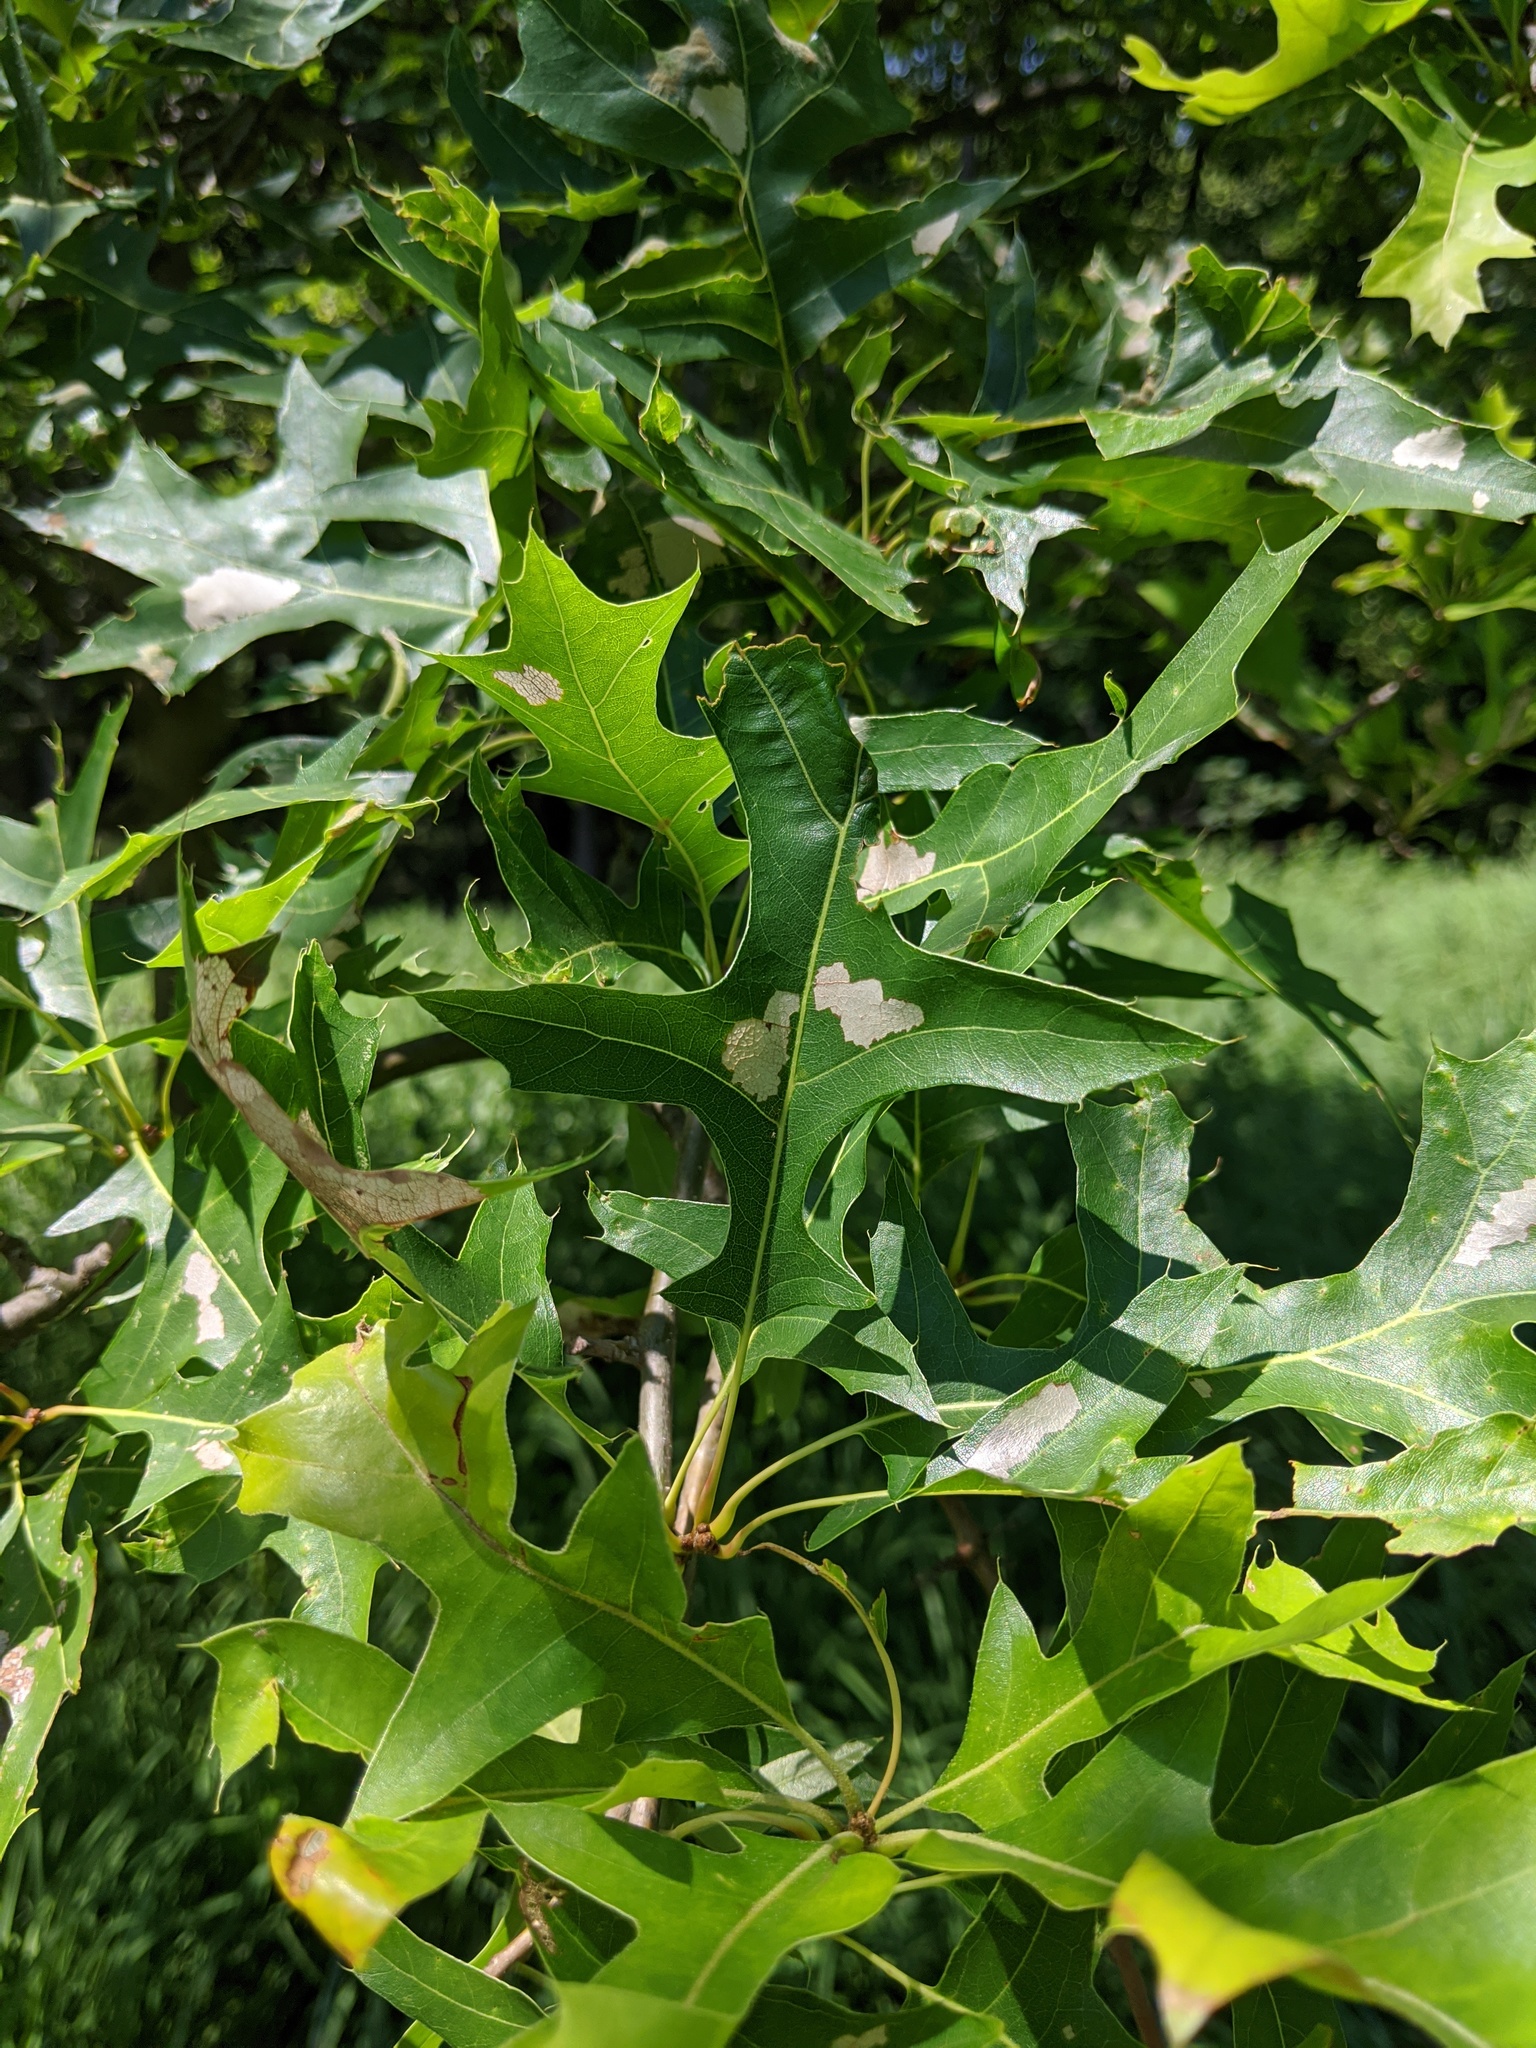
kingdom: Animalia
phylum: Arthropoda
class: Insecta
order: Lepidoptera
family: Bucculatricidae
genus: Bucculatrix
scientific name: Bucculatrix ainsliella
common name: Oak skeletonizer
